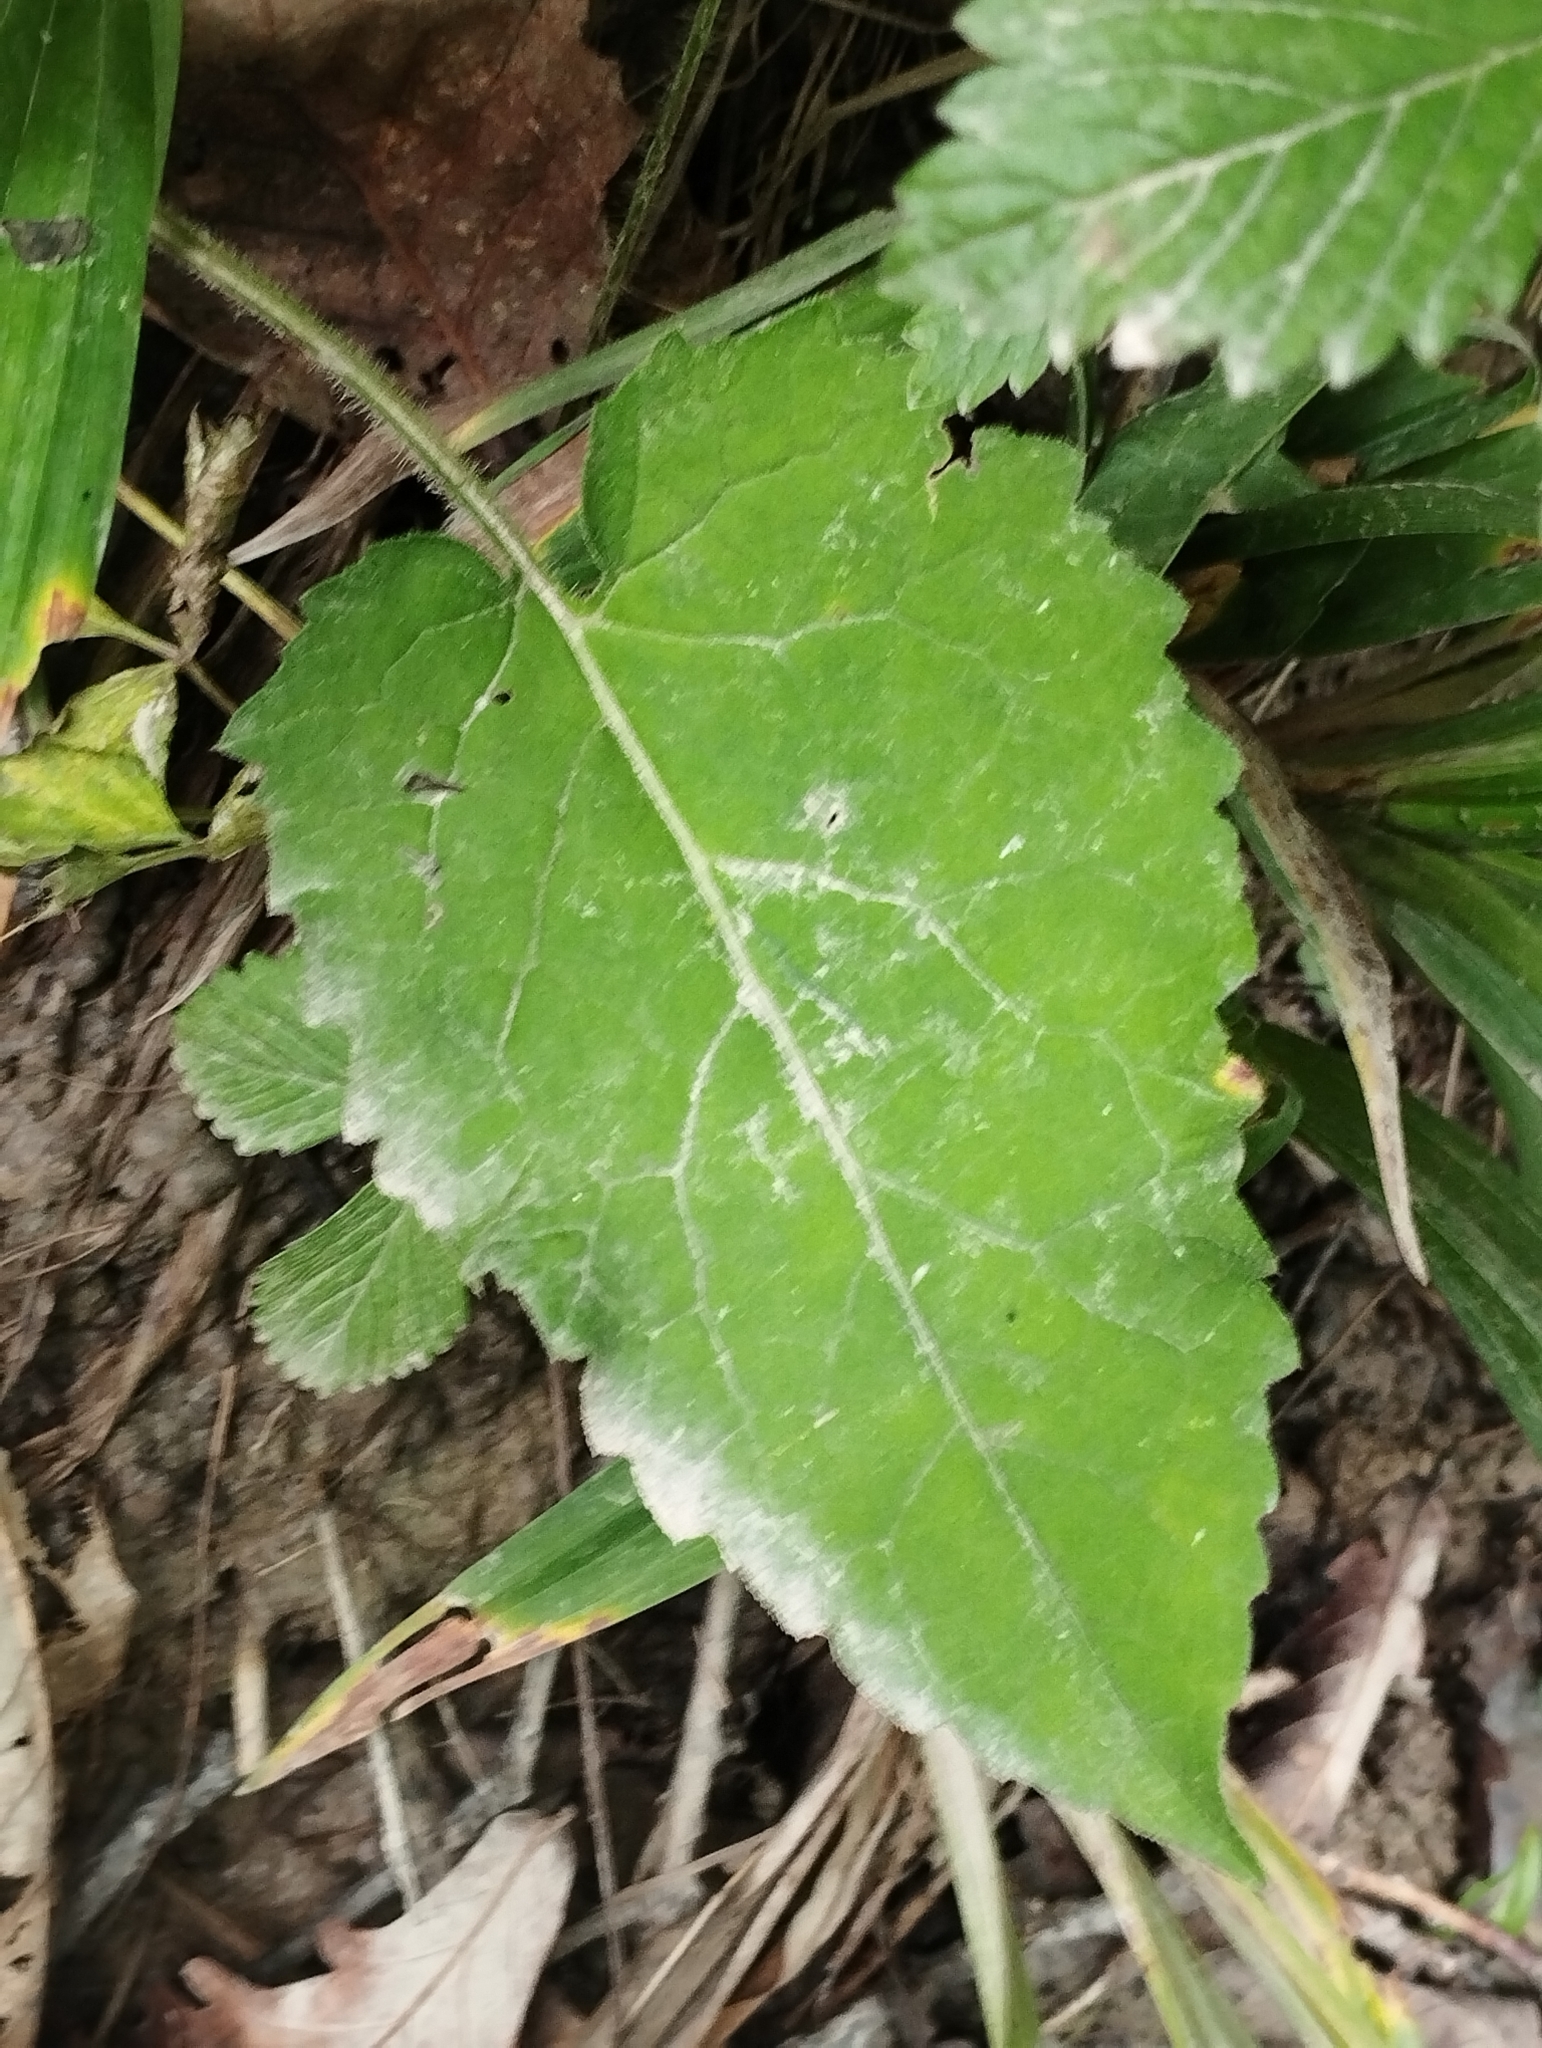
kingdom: Plantae
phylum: Tracheophyta
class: Magnoliopsida
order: Asterales
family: Asteraceae
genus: Aster
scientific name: Aster scaber
